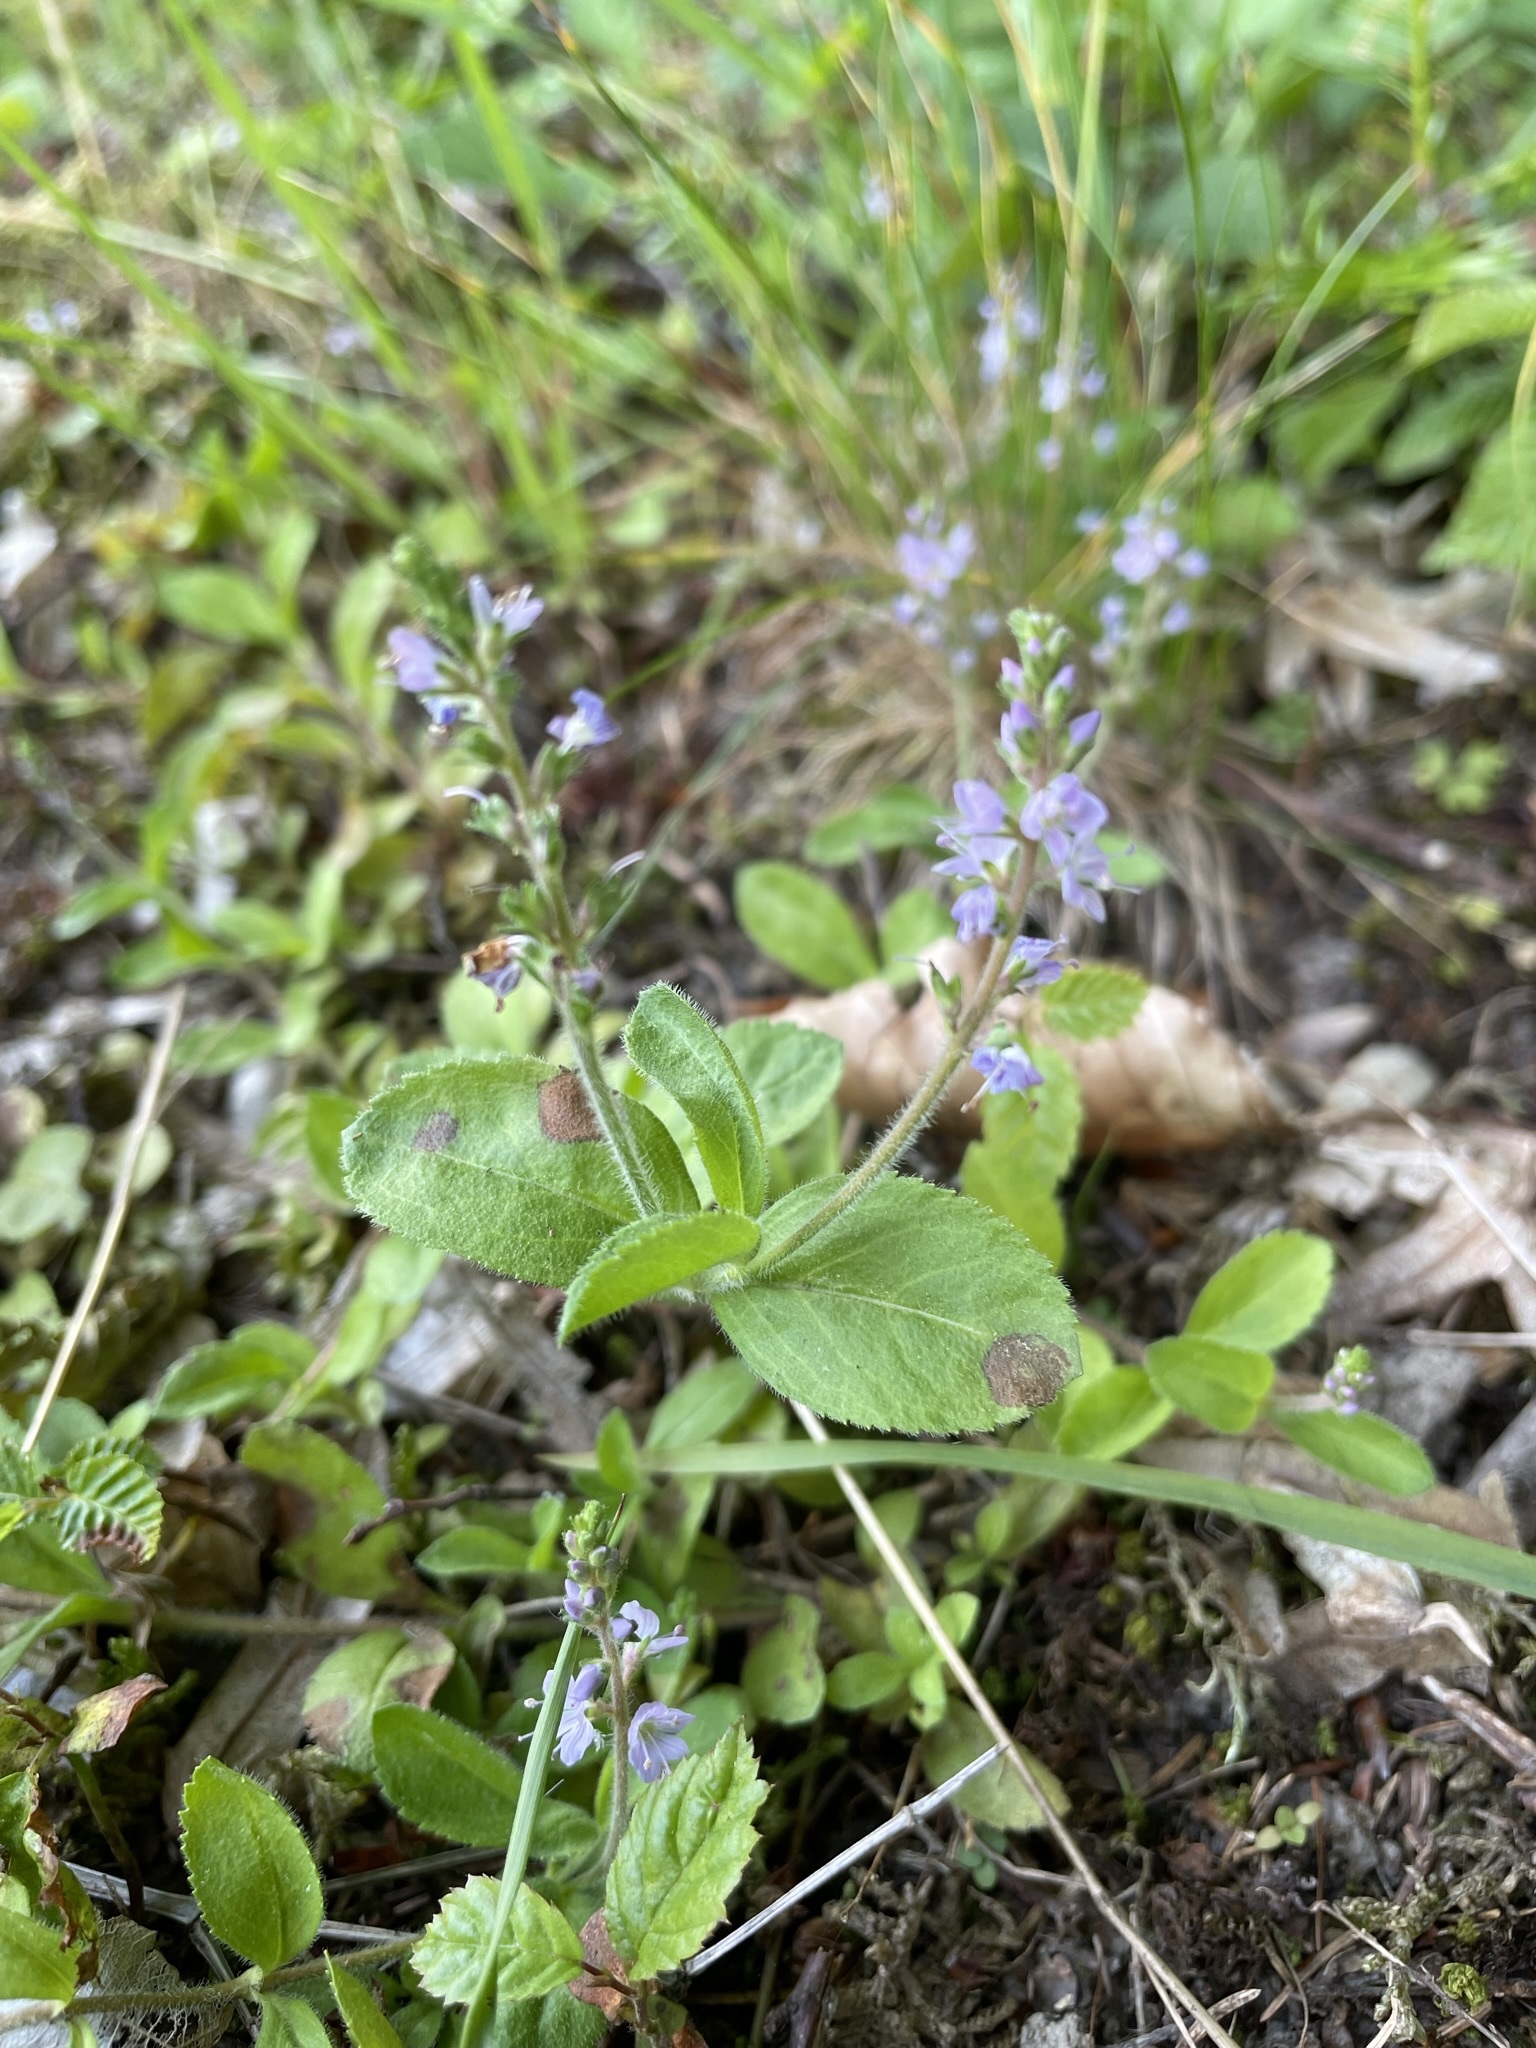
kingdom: Plantae
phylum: Tracheophyta
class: Magnoliopsida
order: Lamiales
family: Plantaginaceae
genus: Veronica
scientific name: Veronica officinalis
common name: Common speedwell
